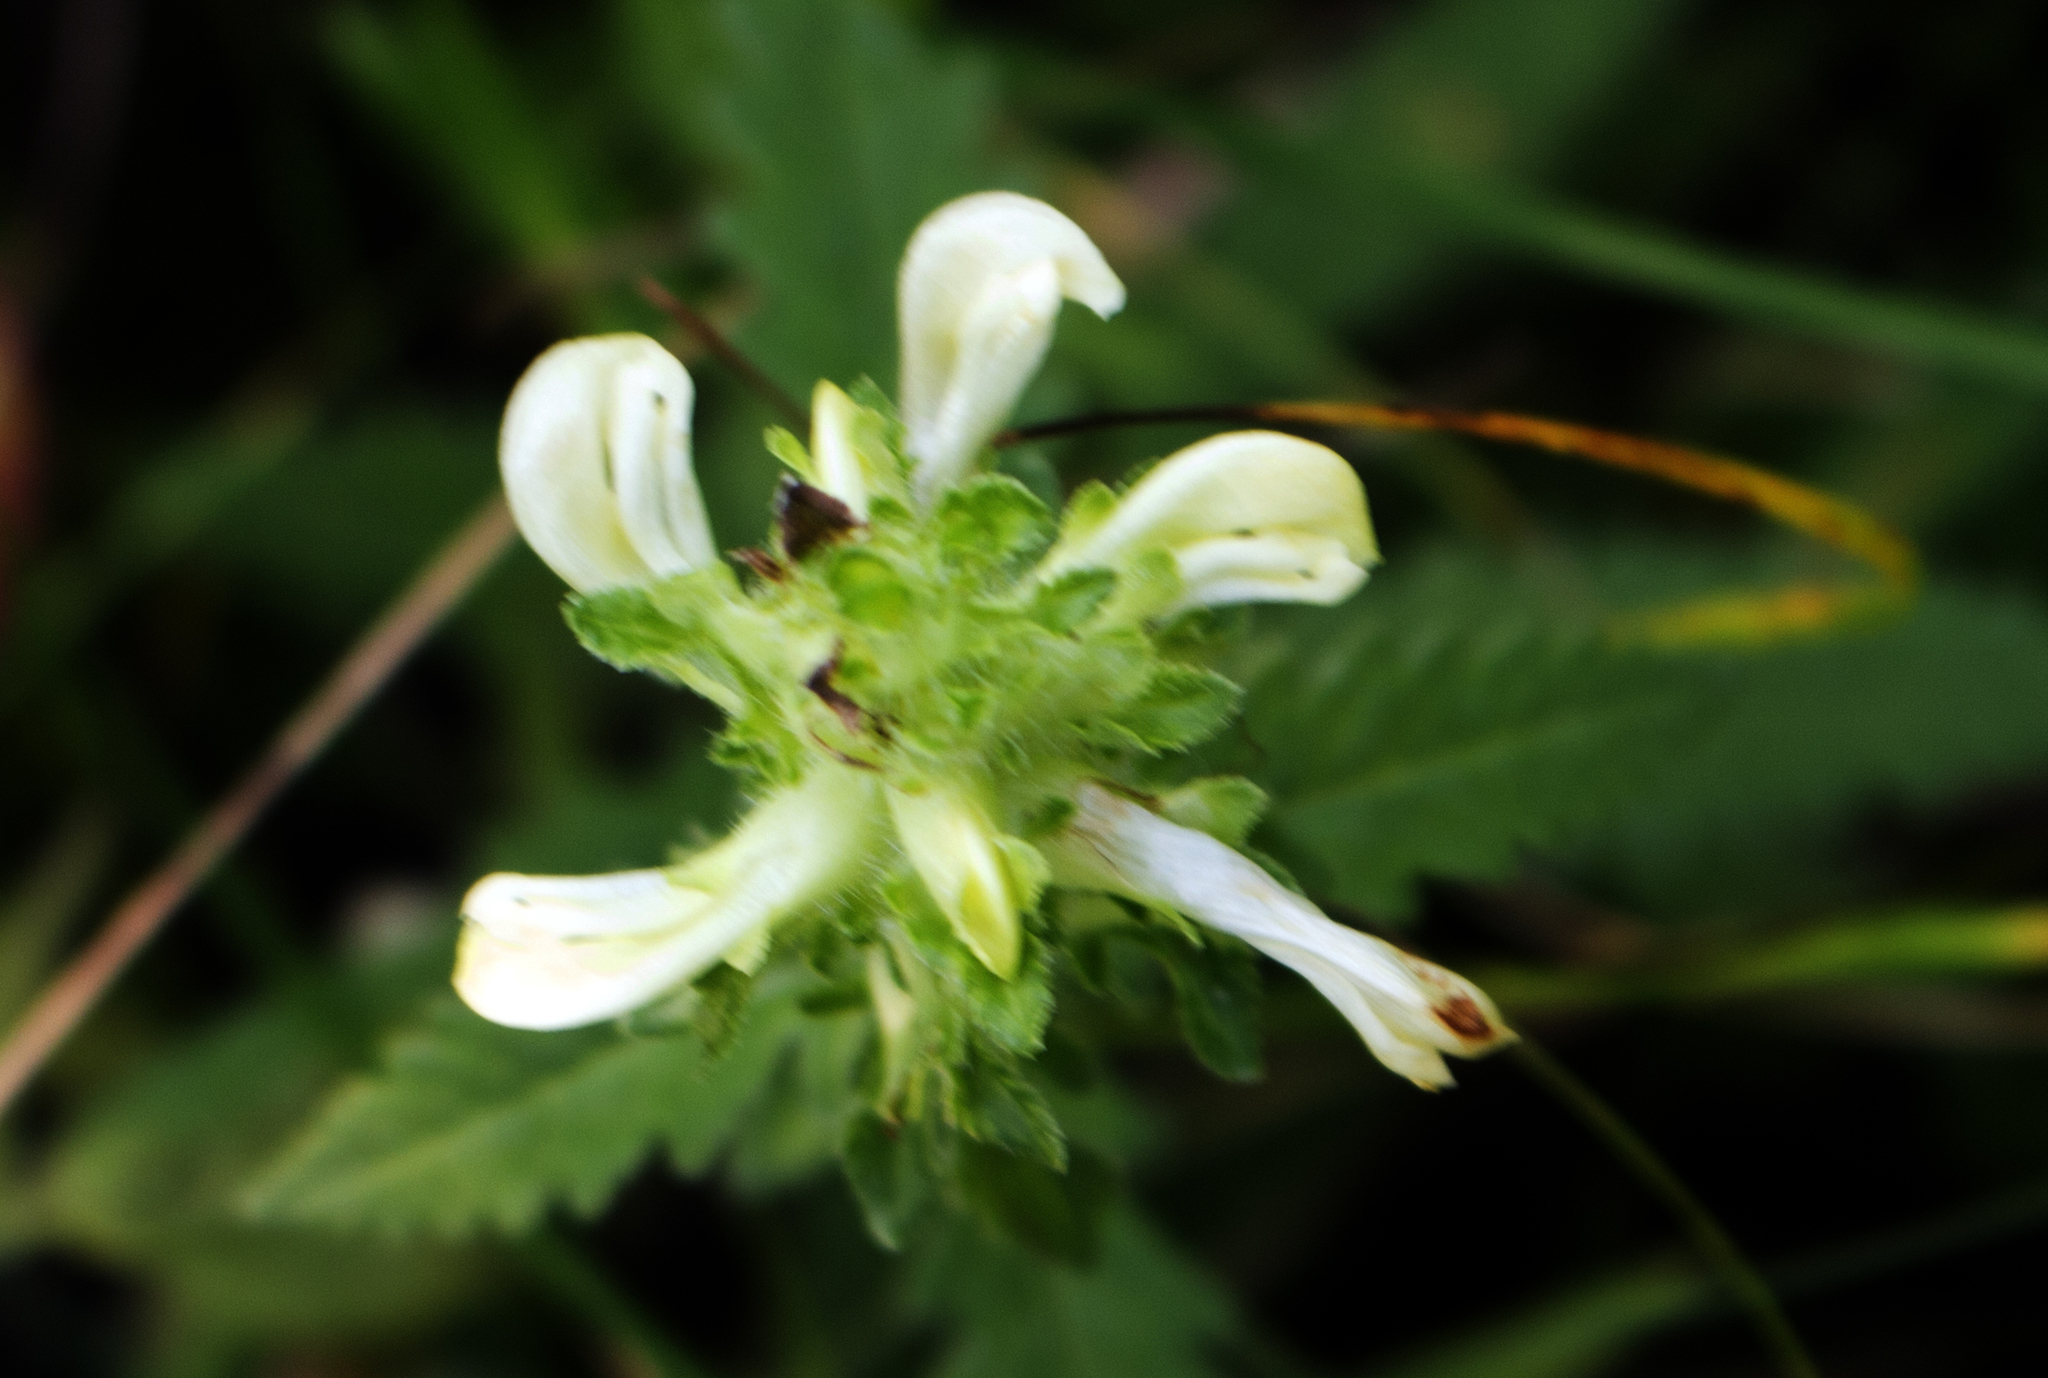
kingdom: Plantae
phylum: Tracheophyta
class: Magnoliopsida
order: Lamiales
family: Orobanchaceae
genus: Pedicularis
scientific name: Pedicularis lanceolata
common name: Swamp lousewort
